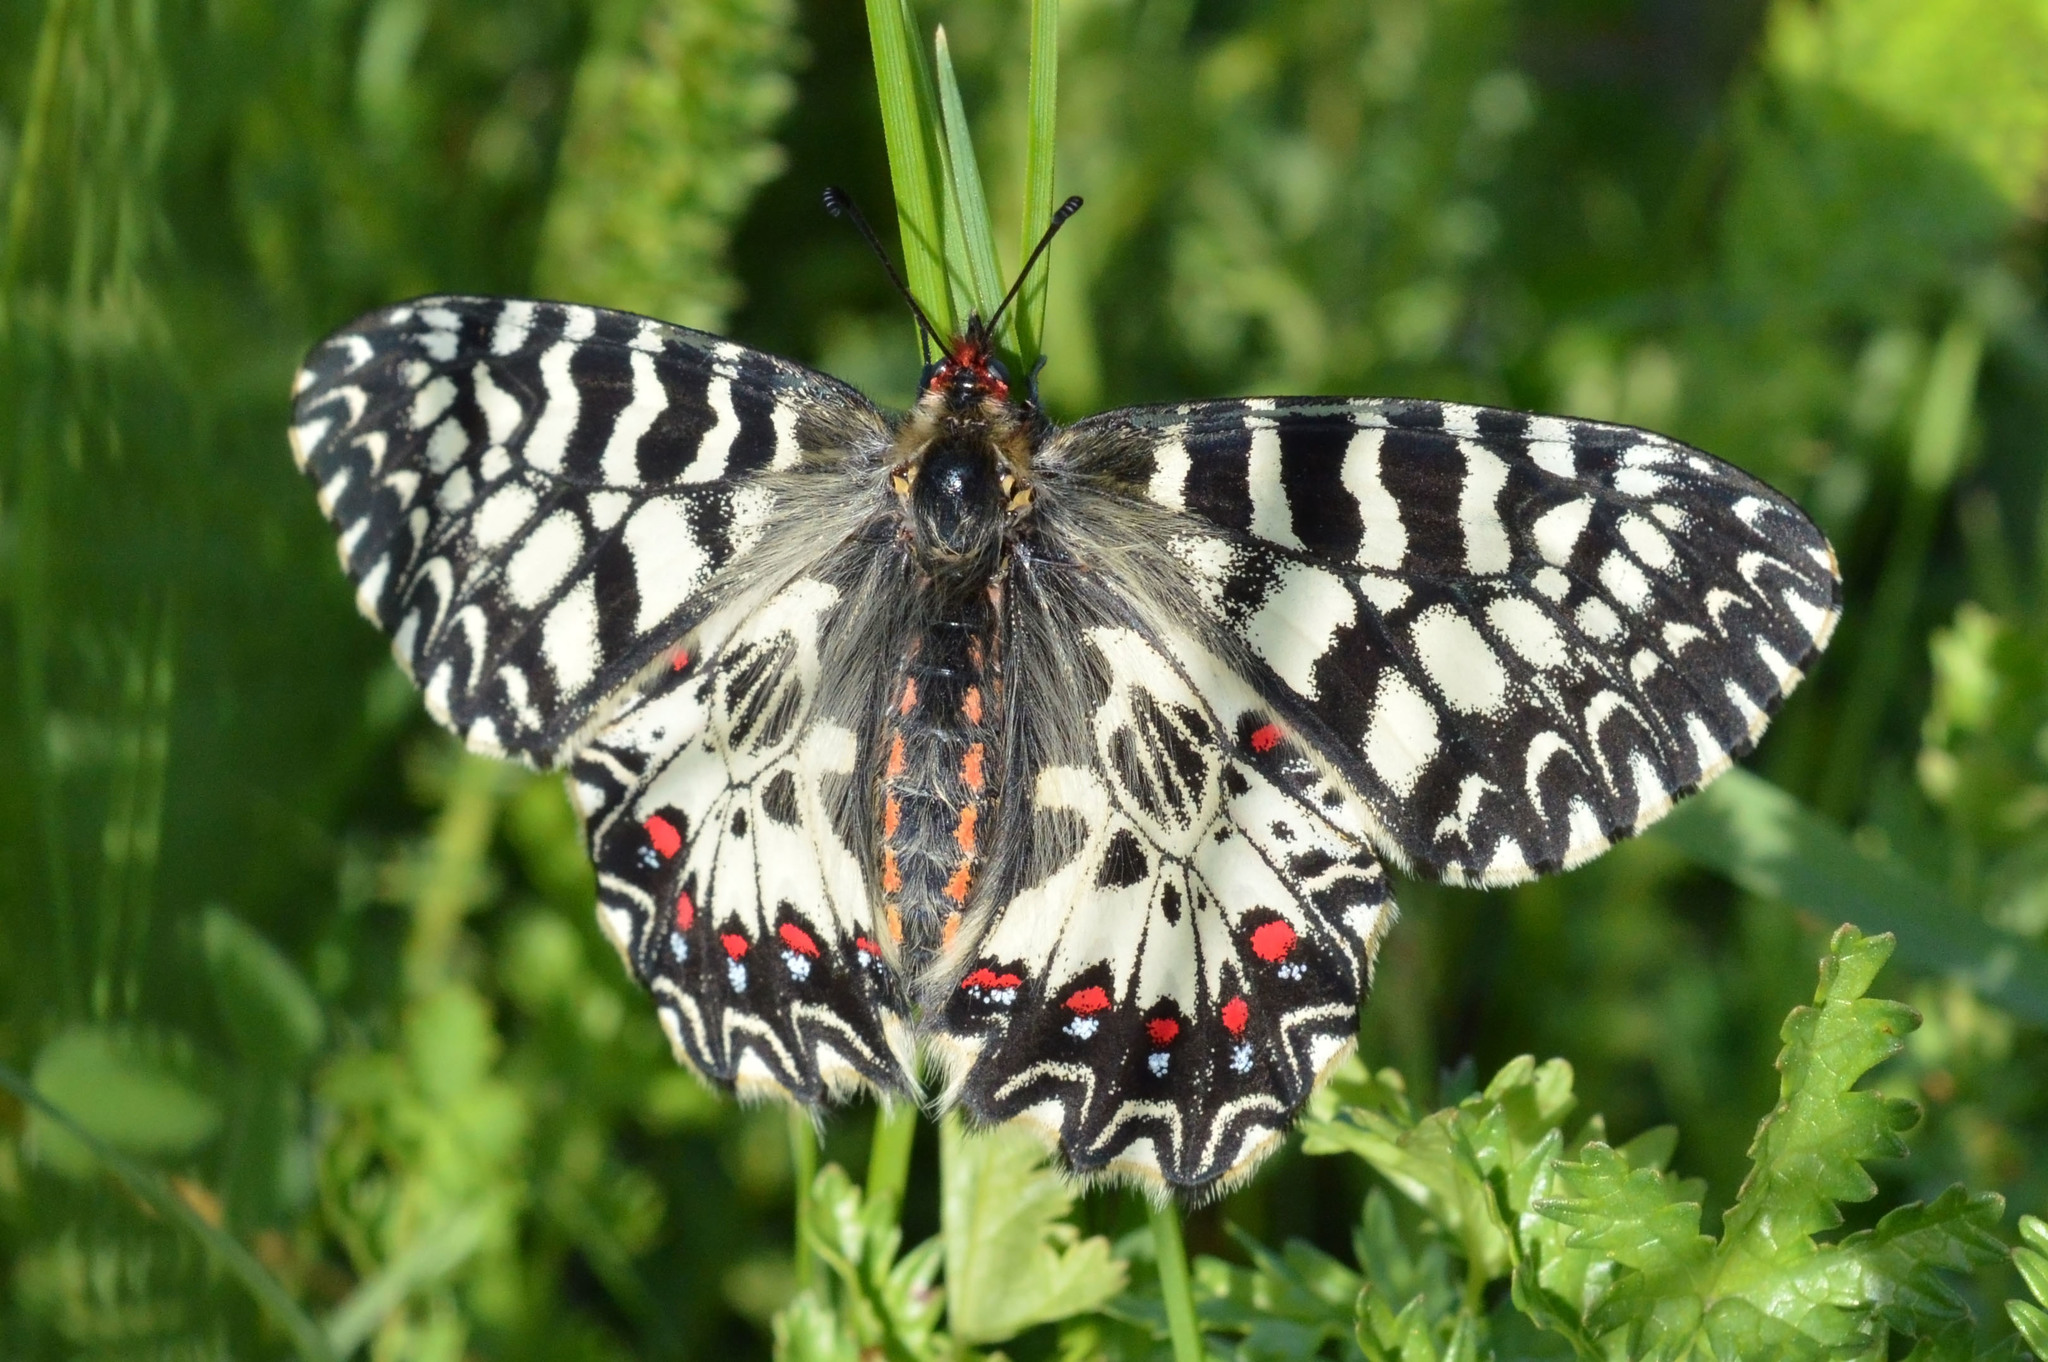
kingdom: Animalia
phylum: Arthropoda
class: Insecta
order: Lepidoptera
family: Papilionidae
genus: Zerynthia
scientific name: Zerynthia polyxena
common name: Southern festoon
